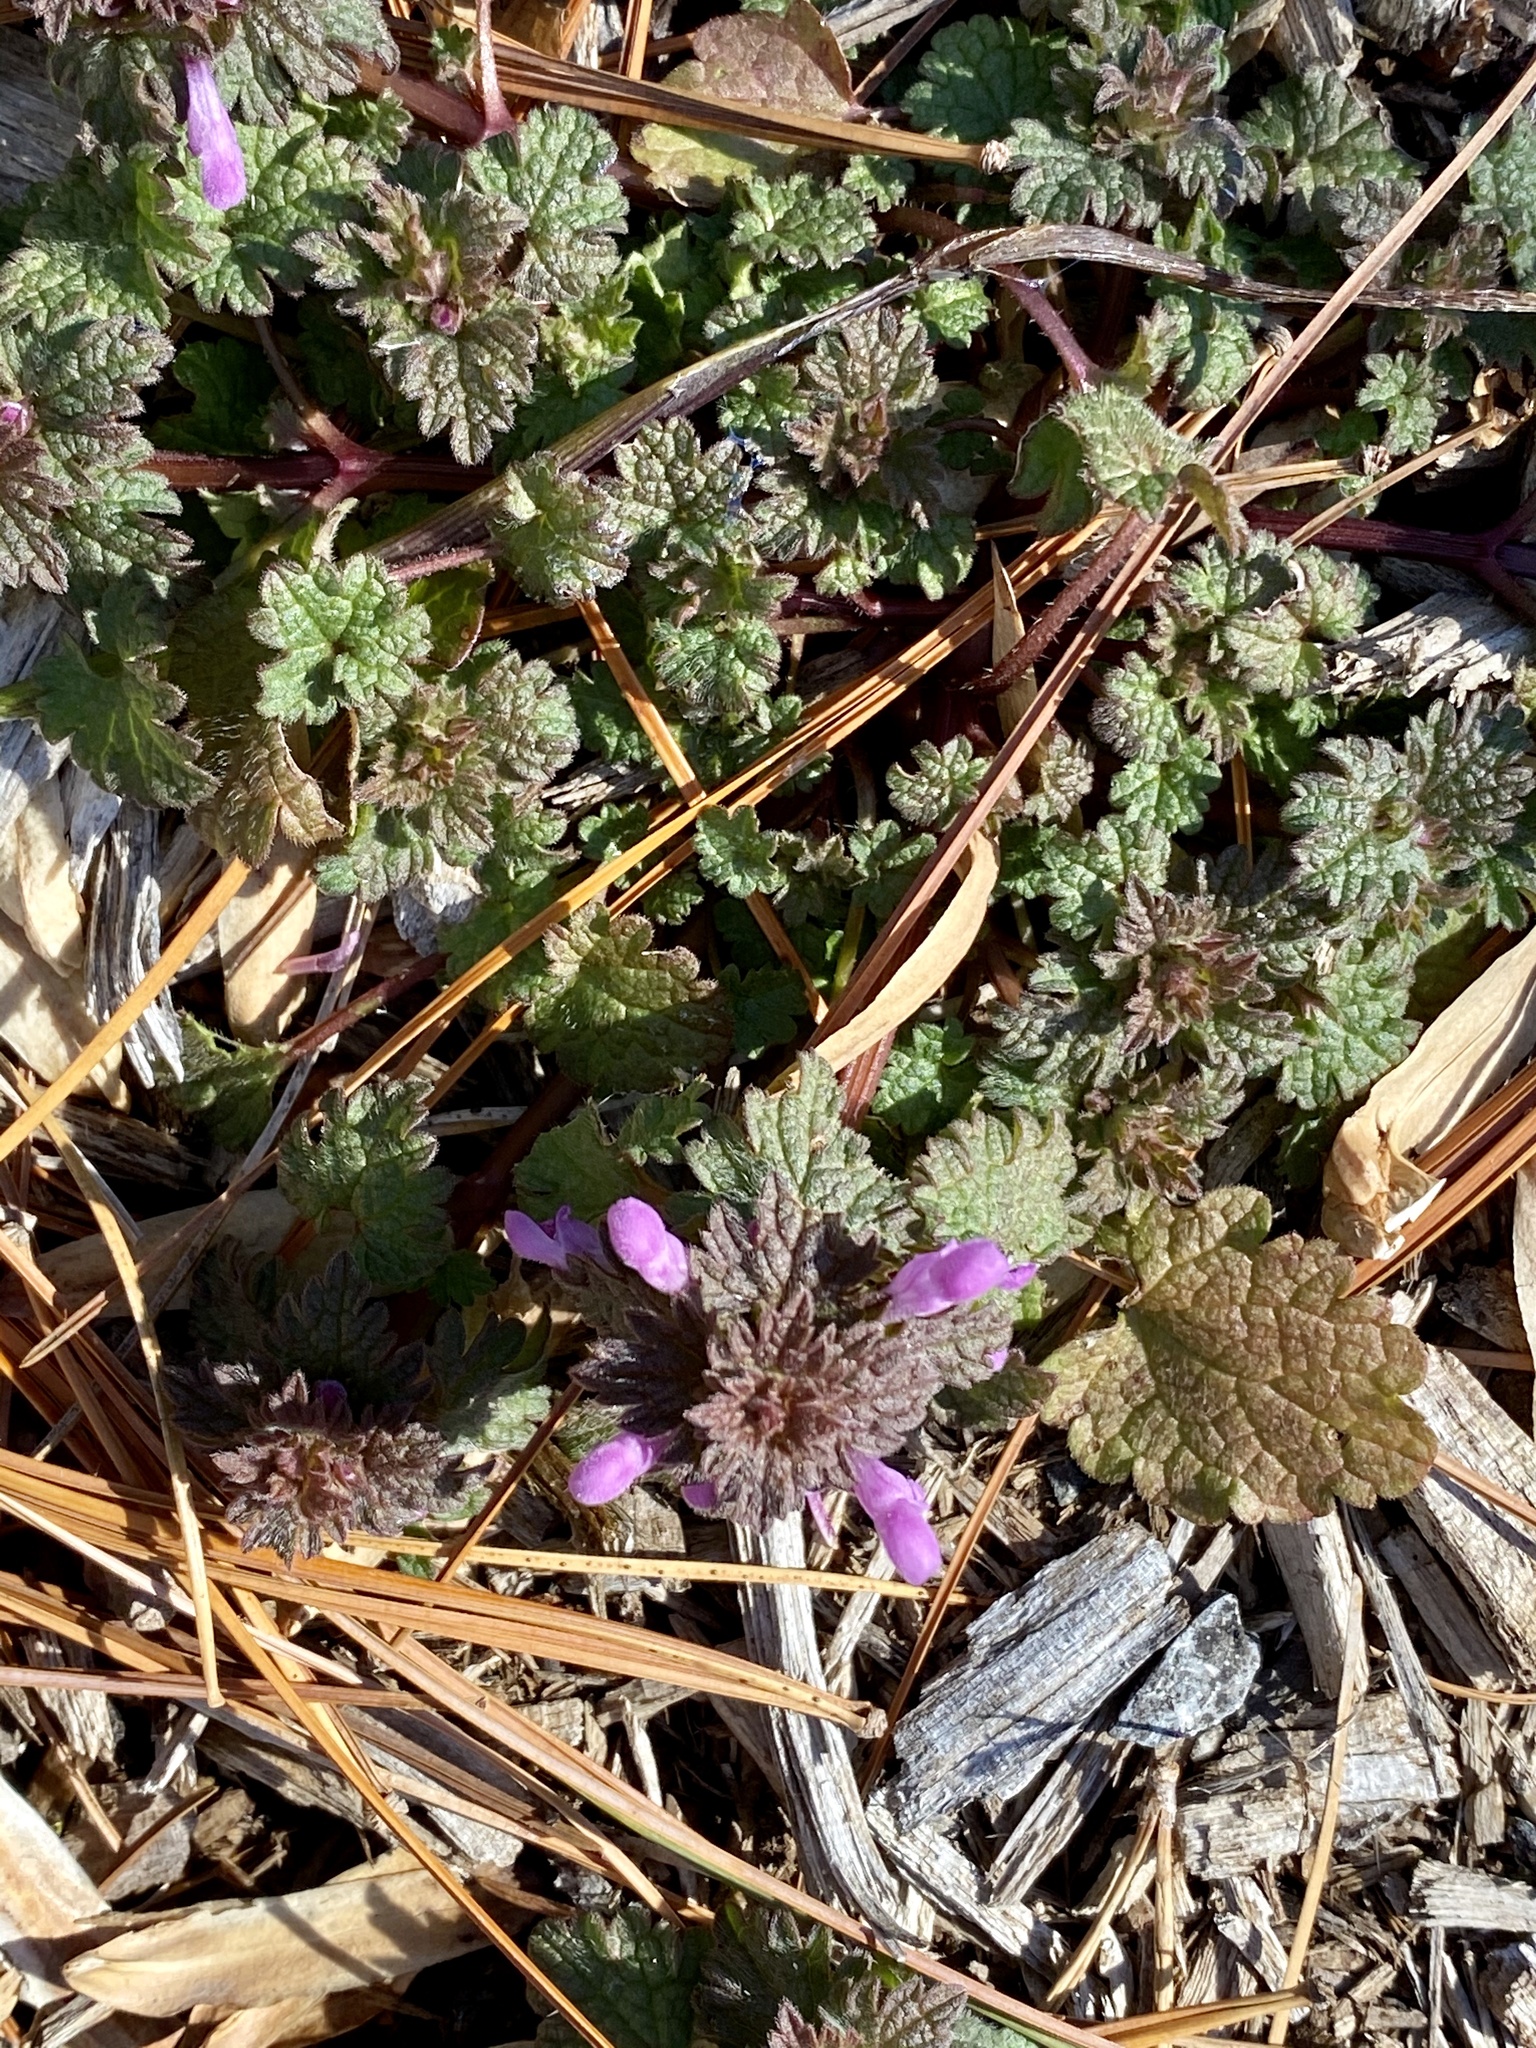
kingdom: Plantae
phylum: Tracheophyta
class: Magnoliopsida
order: Lamiales
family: Lamiaceae
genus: Lamium
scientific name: Lamium purpureum
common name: Red dead-nettle
